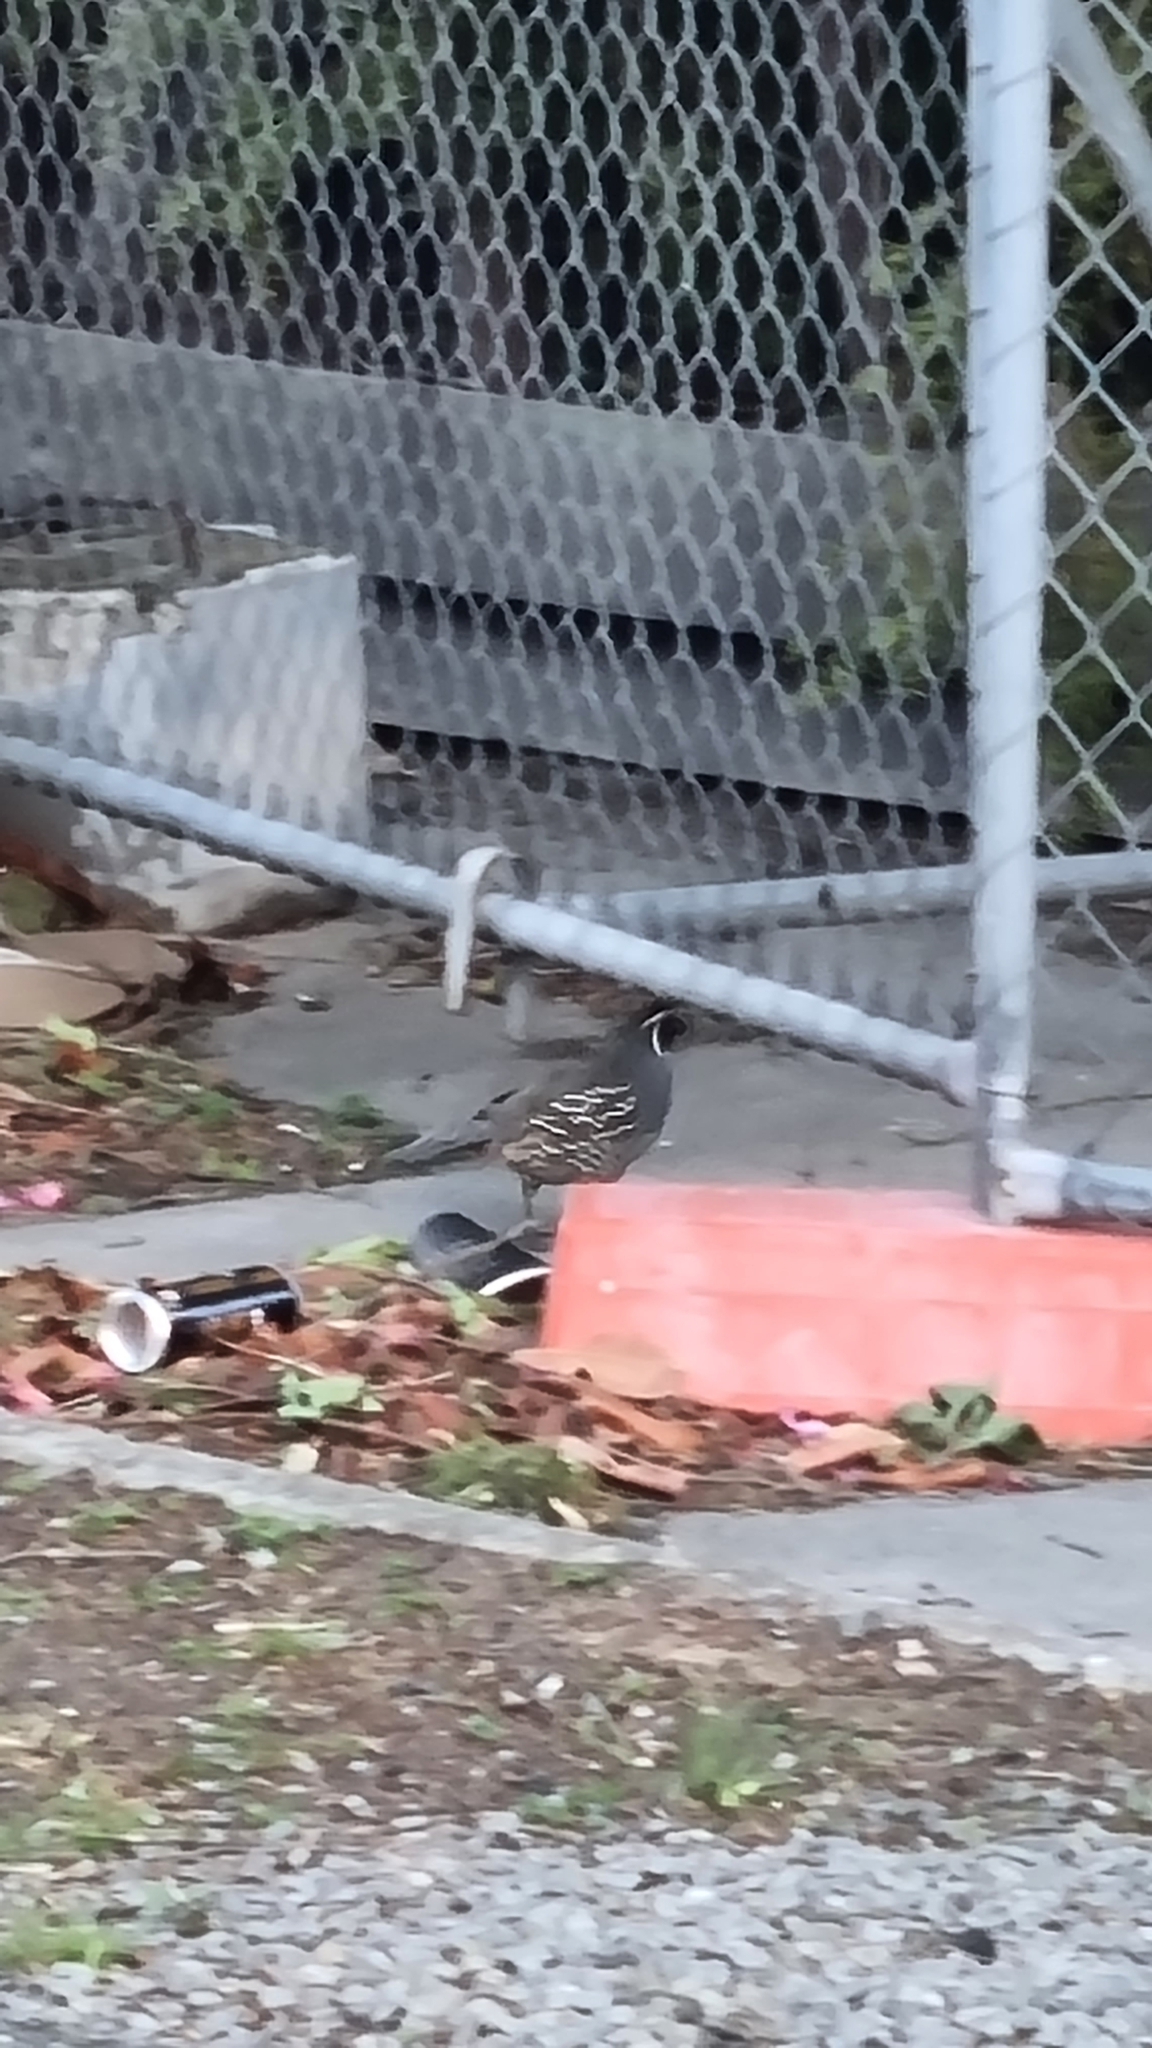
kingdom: Animalia
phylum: Chordata
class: Aves
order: Galliformes
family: Odontophoridae
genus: Callipepla
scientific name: Callipepla californica
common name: California quail
